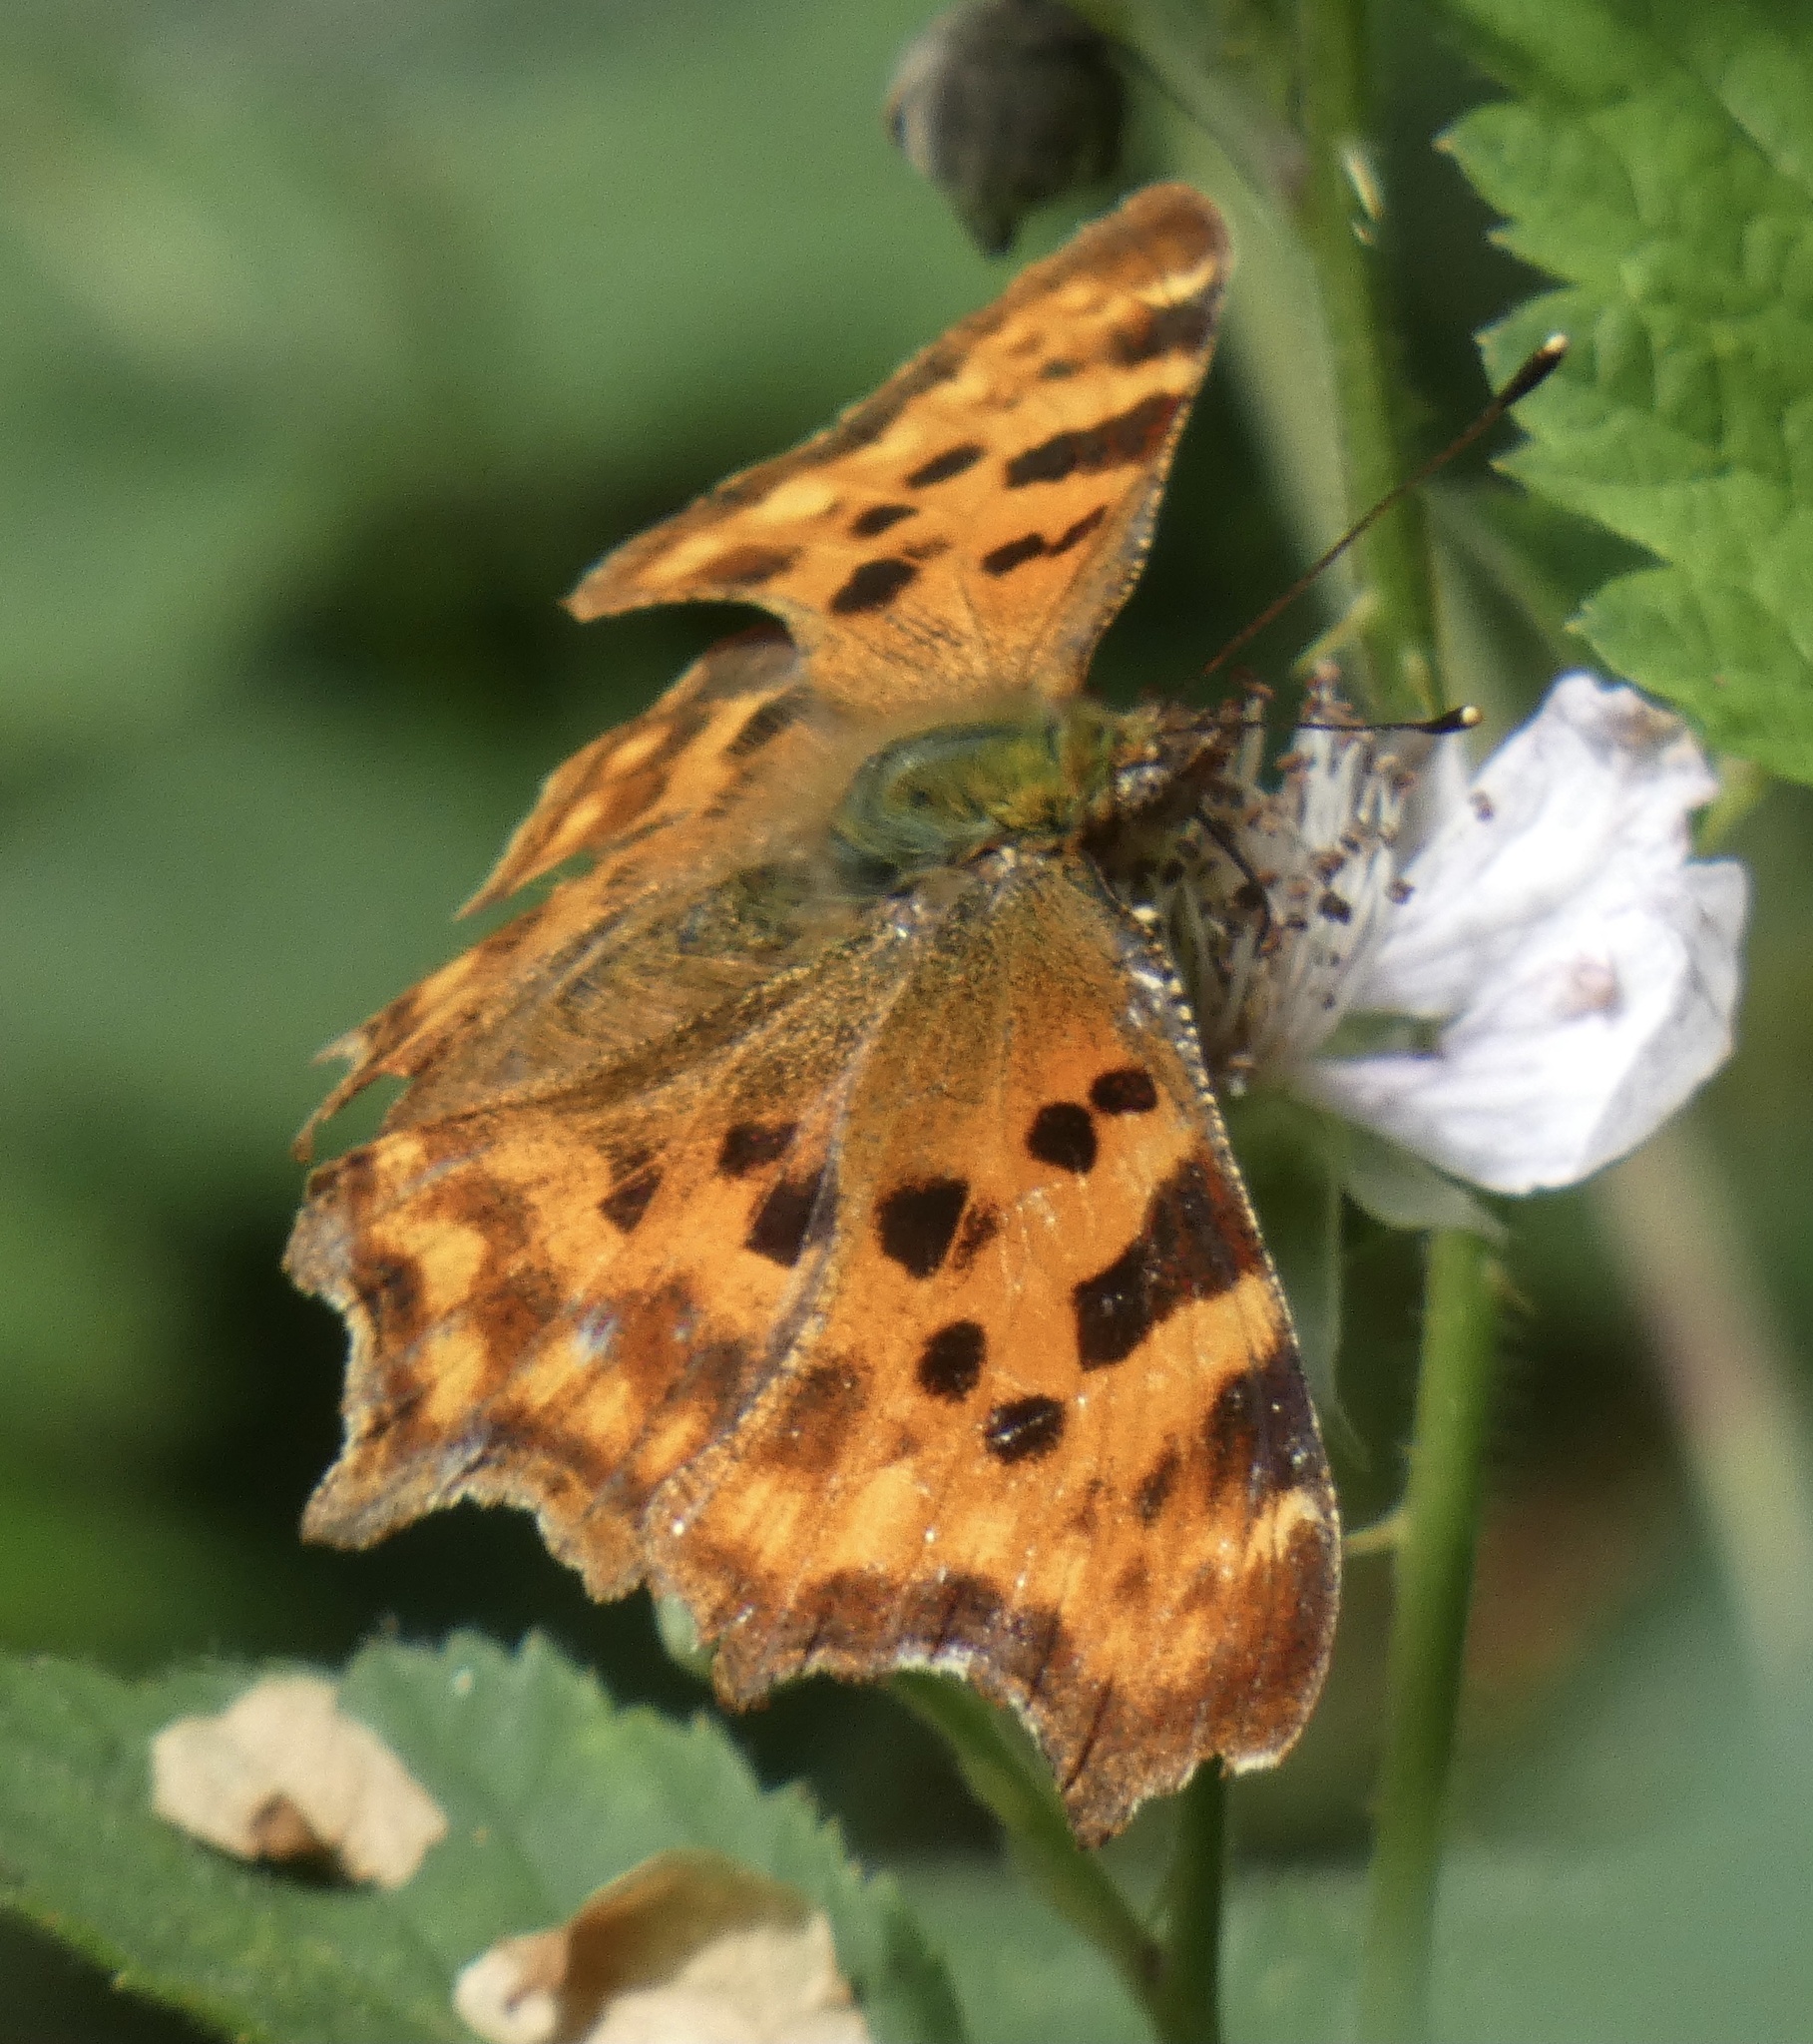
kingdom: Animalia
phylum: Arthropoda
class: Insecta
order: Lepidoptera
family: Nymphalidae
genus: Polygonia
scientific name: Polygonia c-album
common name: Comma
